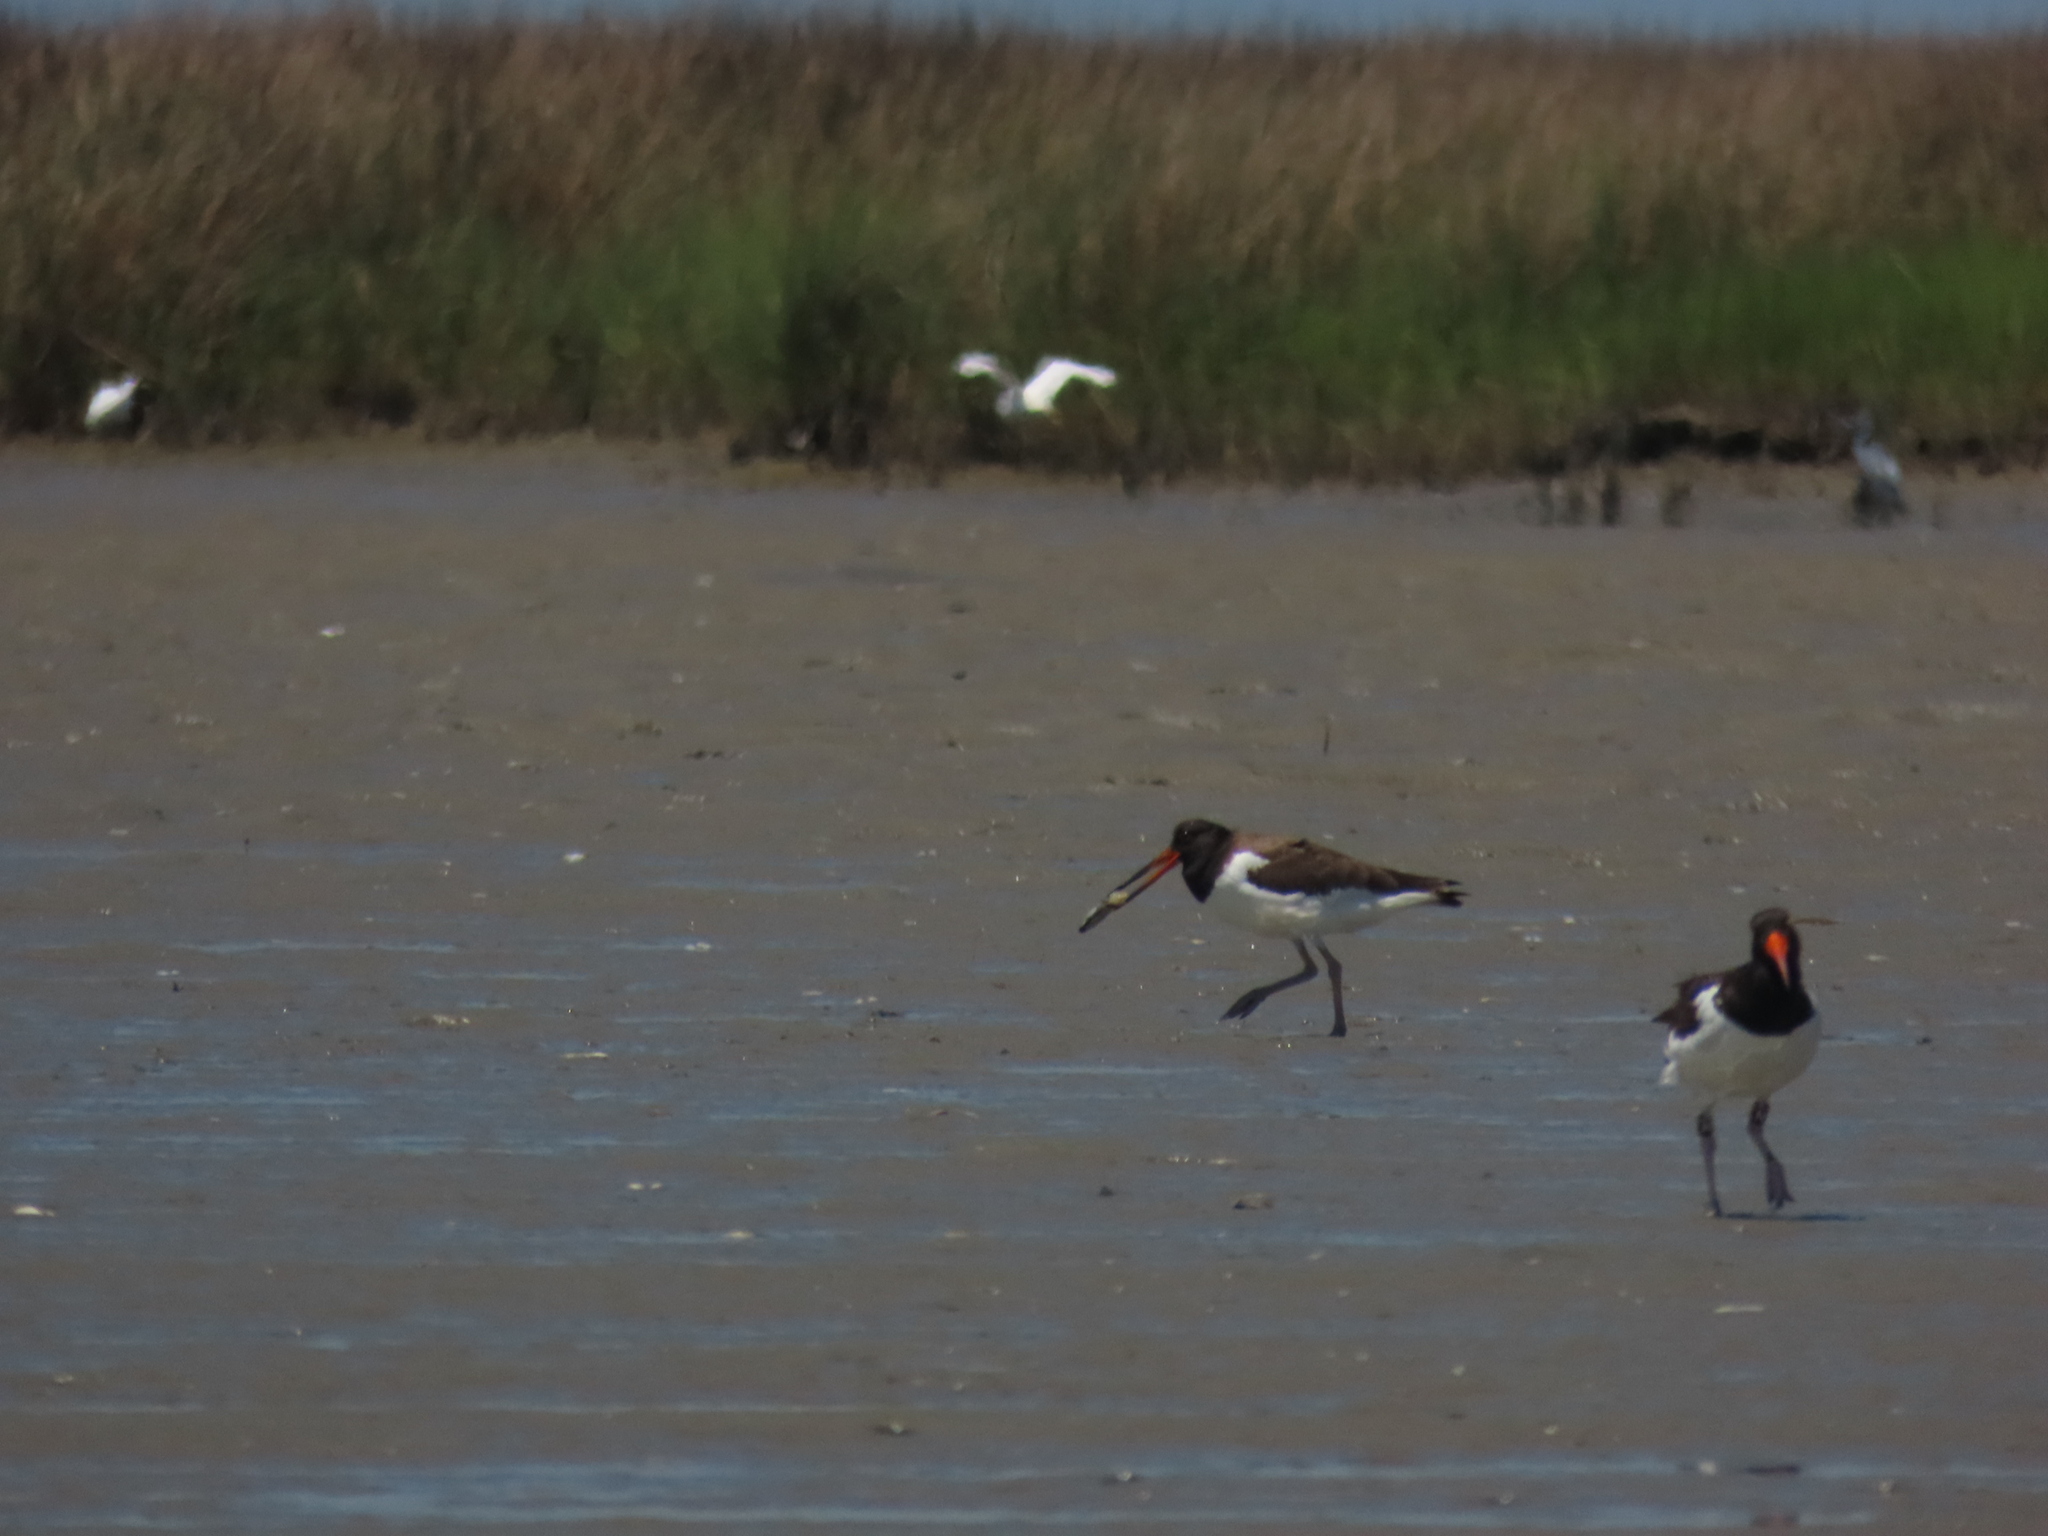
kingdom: Animalia
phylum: Chordata
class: Aves
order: Charadriiformes
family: Haematopodidae
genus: Haematopus
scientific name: Haematopus palliatus
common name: American oystercatcher
